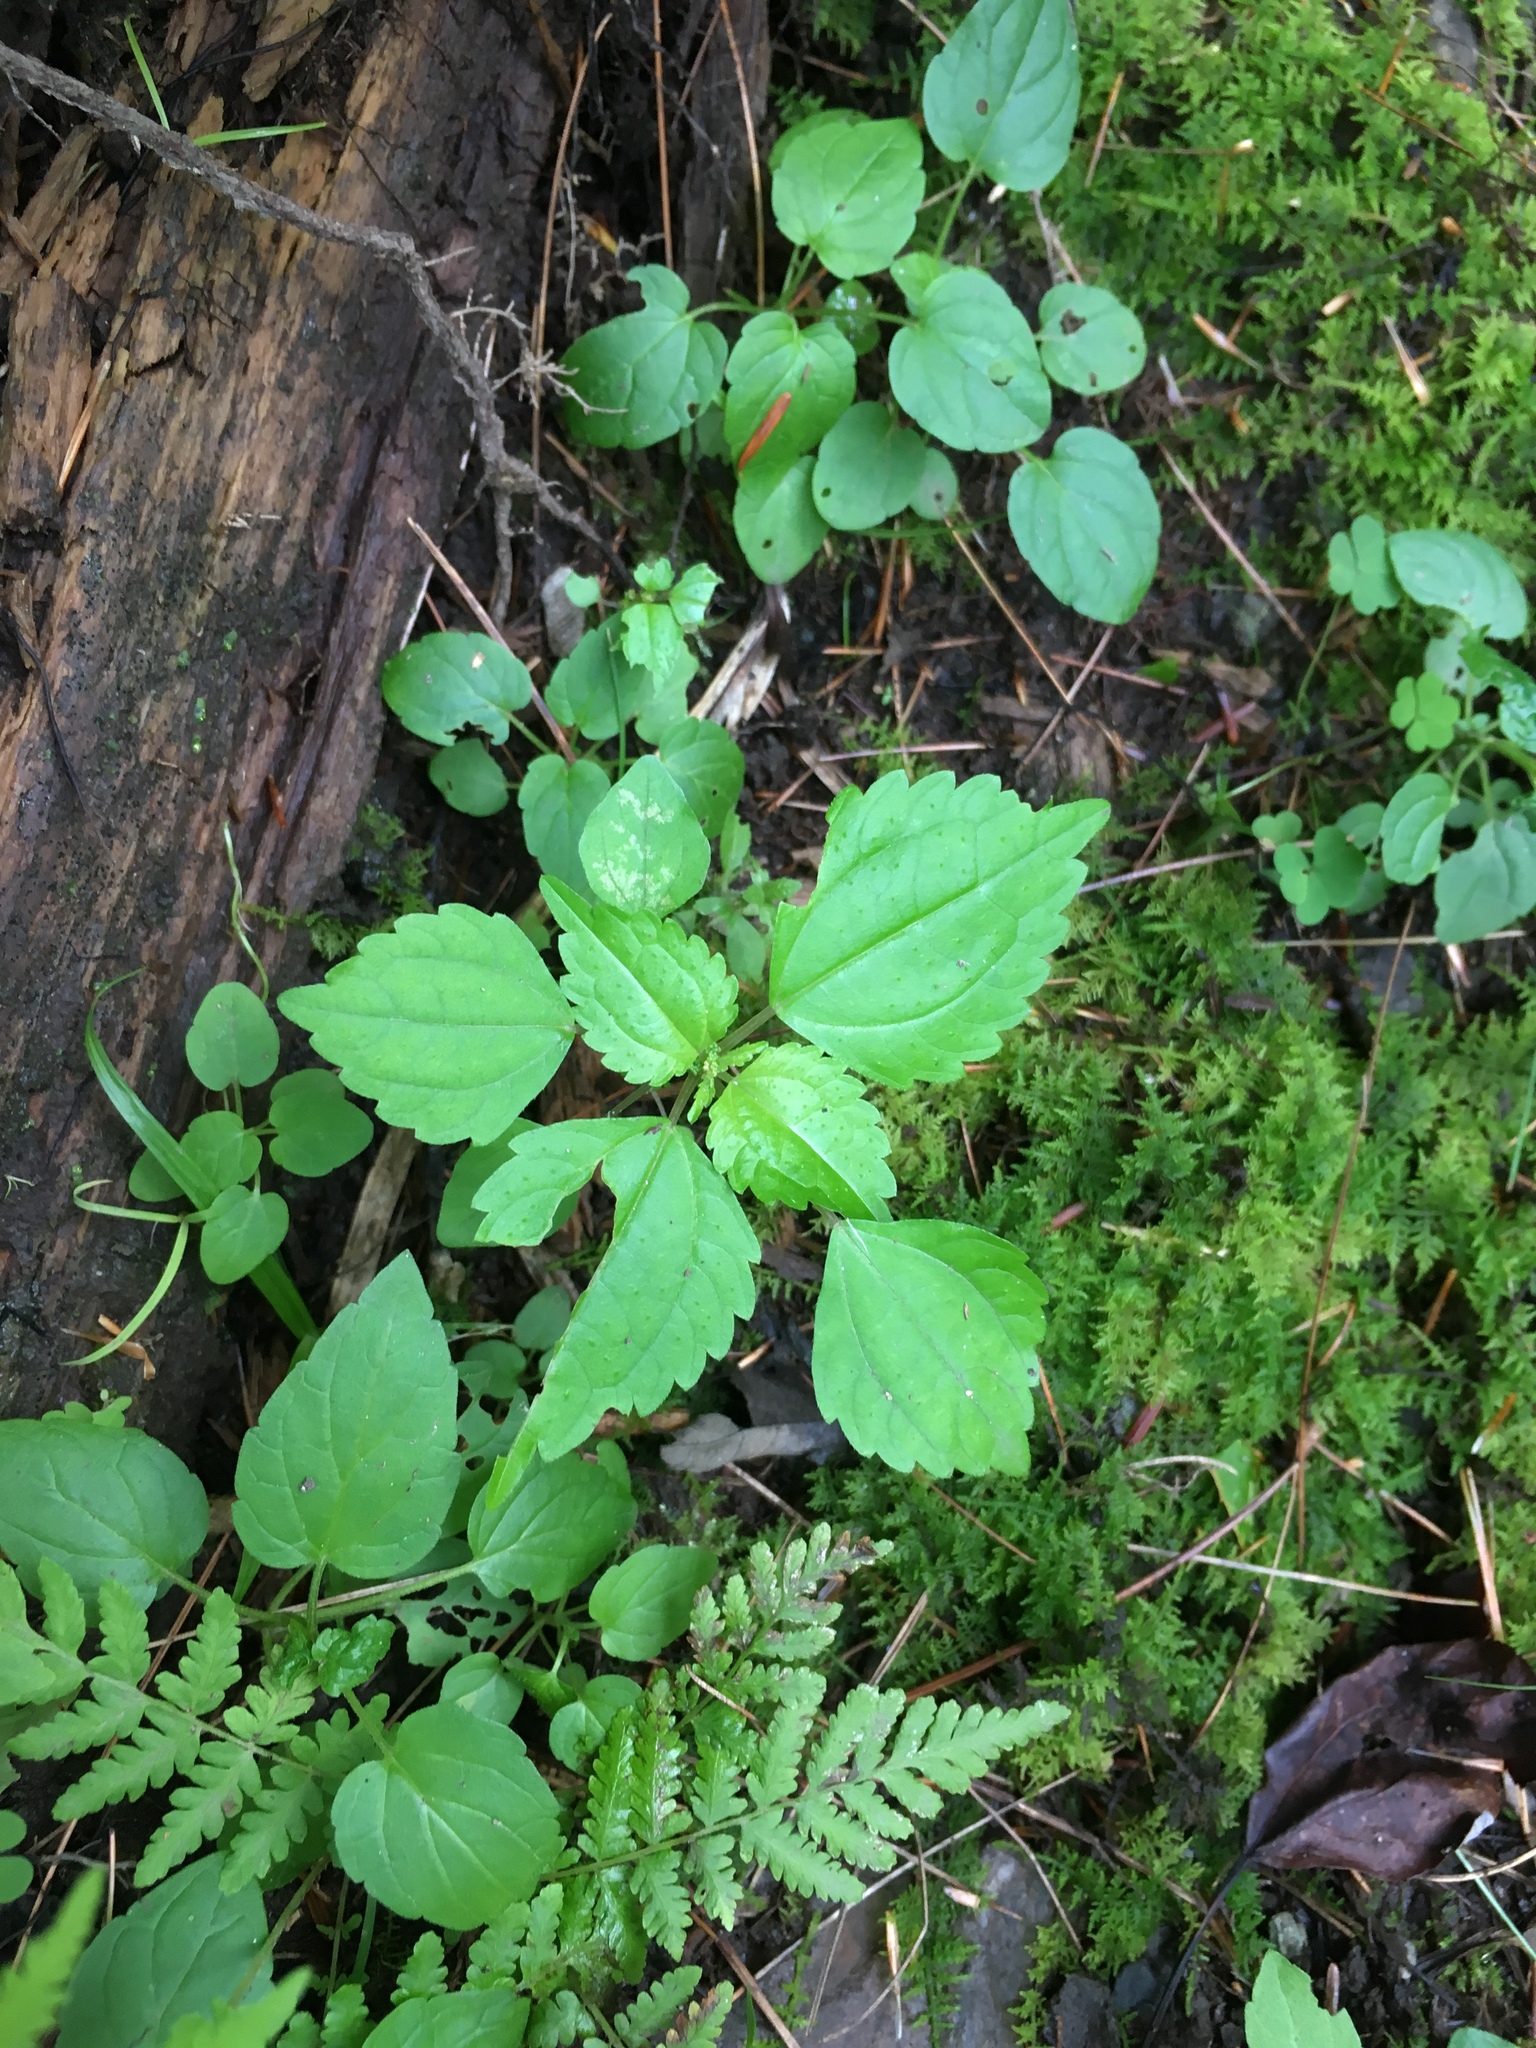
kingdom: Plantae
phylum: Tracheophyta
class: Magnoliopsida
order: Rosales
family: Urticaceae
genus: Pilea
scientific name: Pilea pumila
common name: Clearweed
